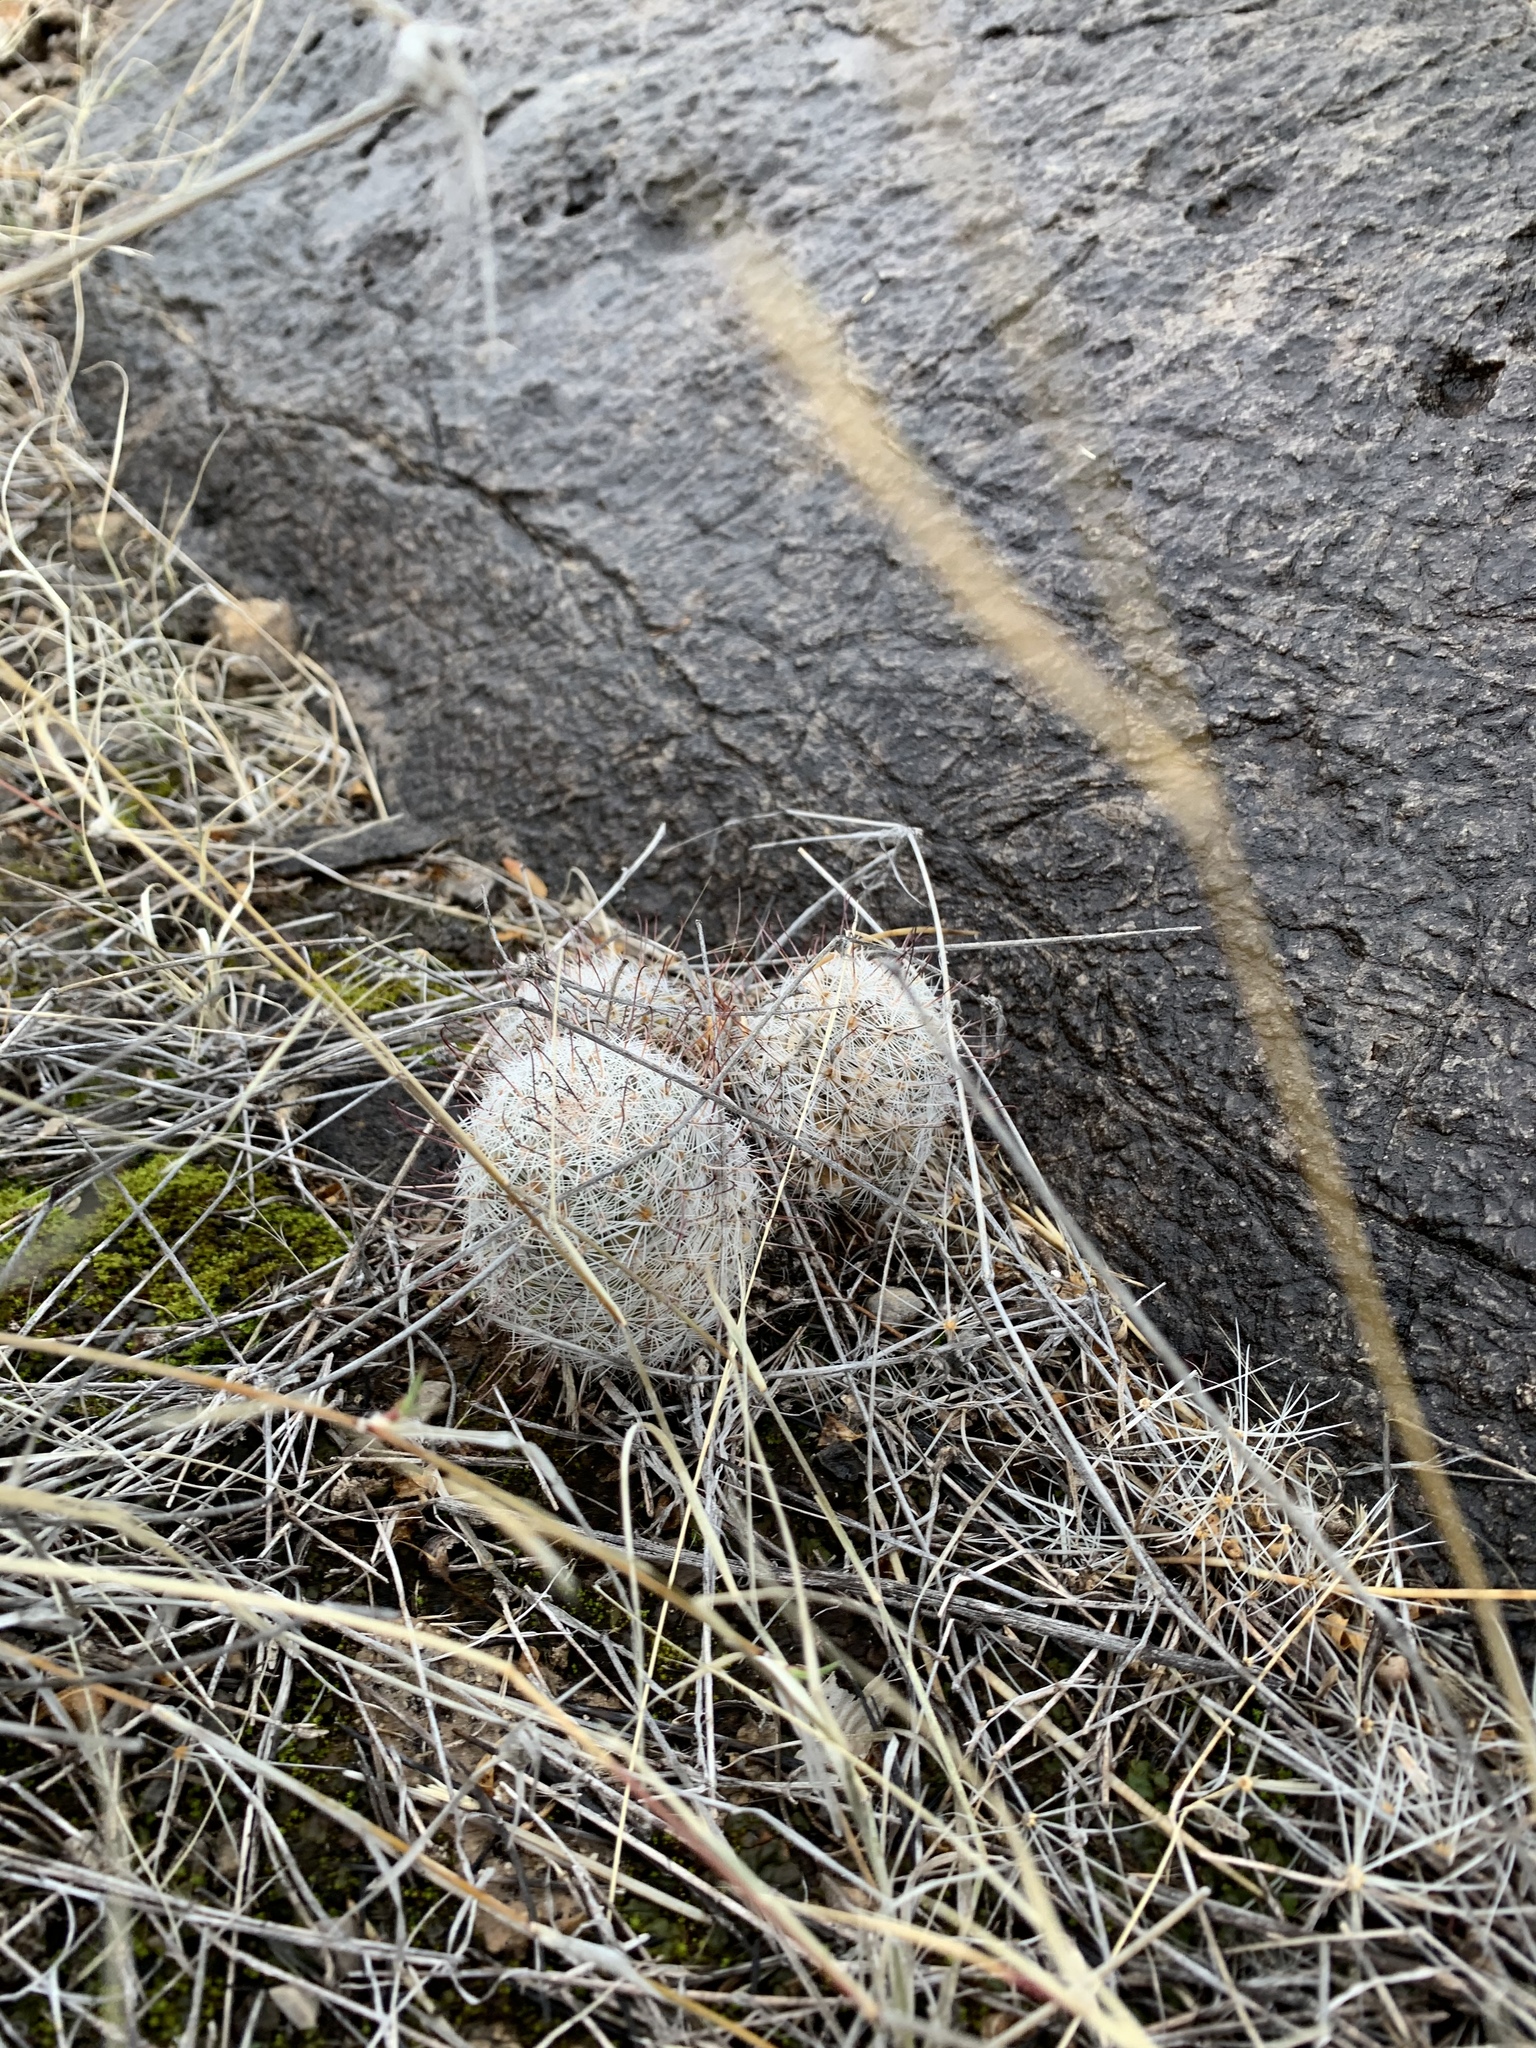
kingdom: Plantae
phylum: Tracheophyta
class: Magnoliopsida
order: Caryophyllales
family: Cactaceae
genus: Cochemiea
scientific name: Cochemiea grahamii
